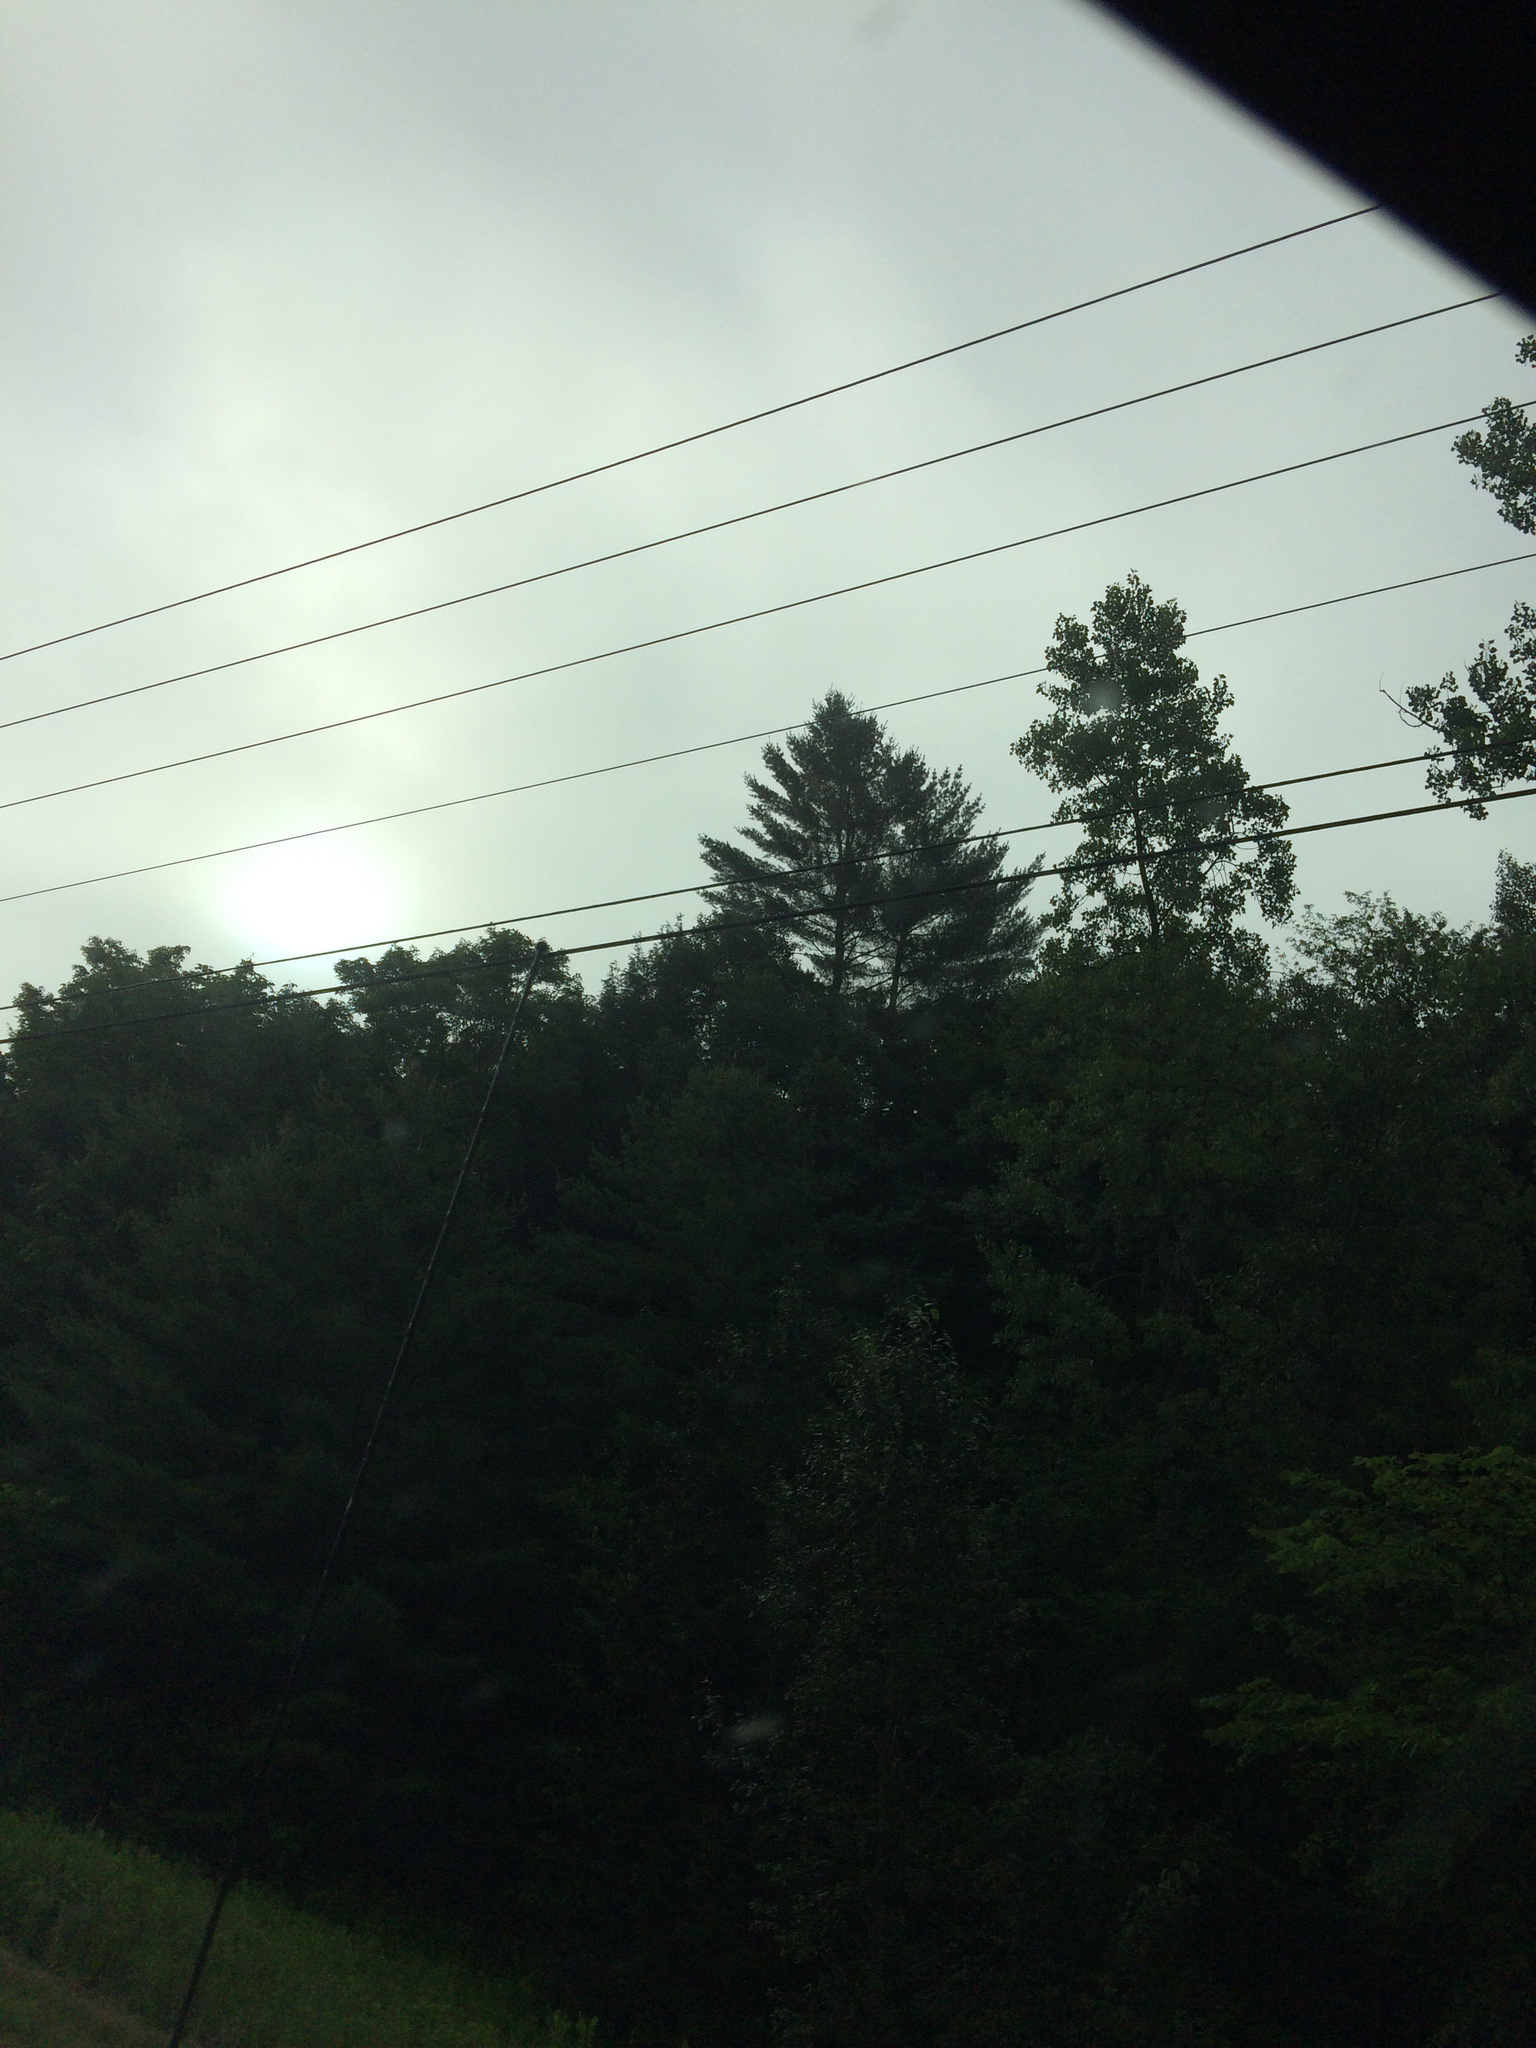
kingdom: Plantae
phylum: Tracheophyta
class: Pinopsida
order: Pinales
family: Pinaceae
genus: Pinus
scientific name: Pinus strobus
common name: Weymouth pine
